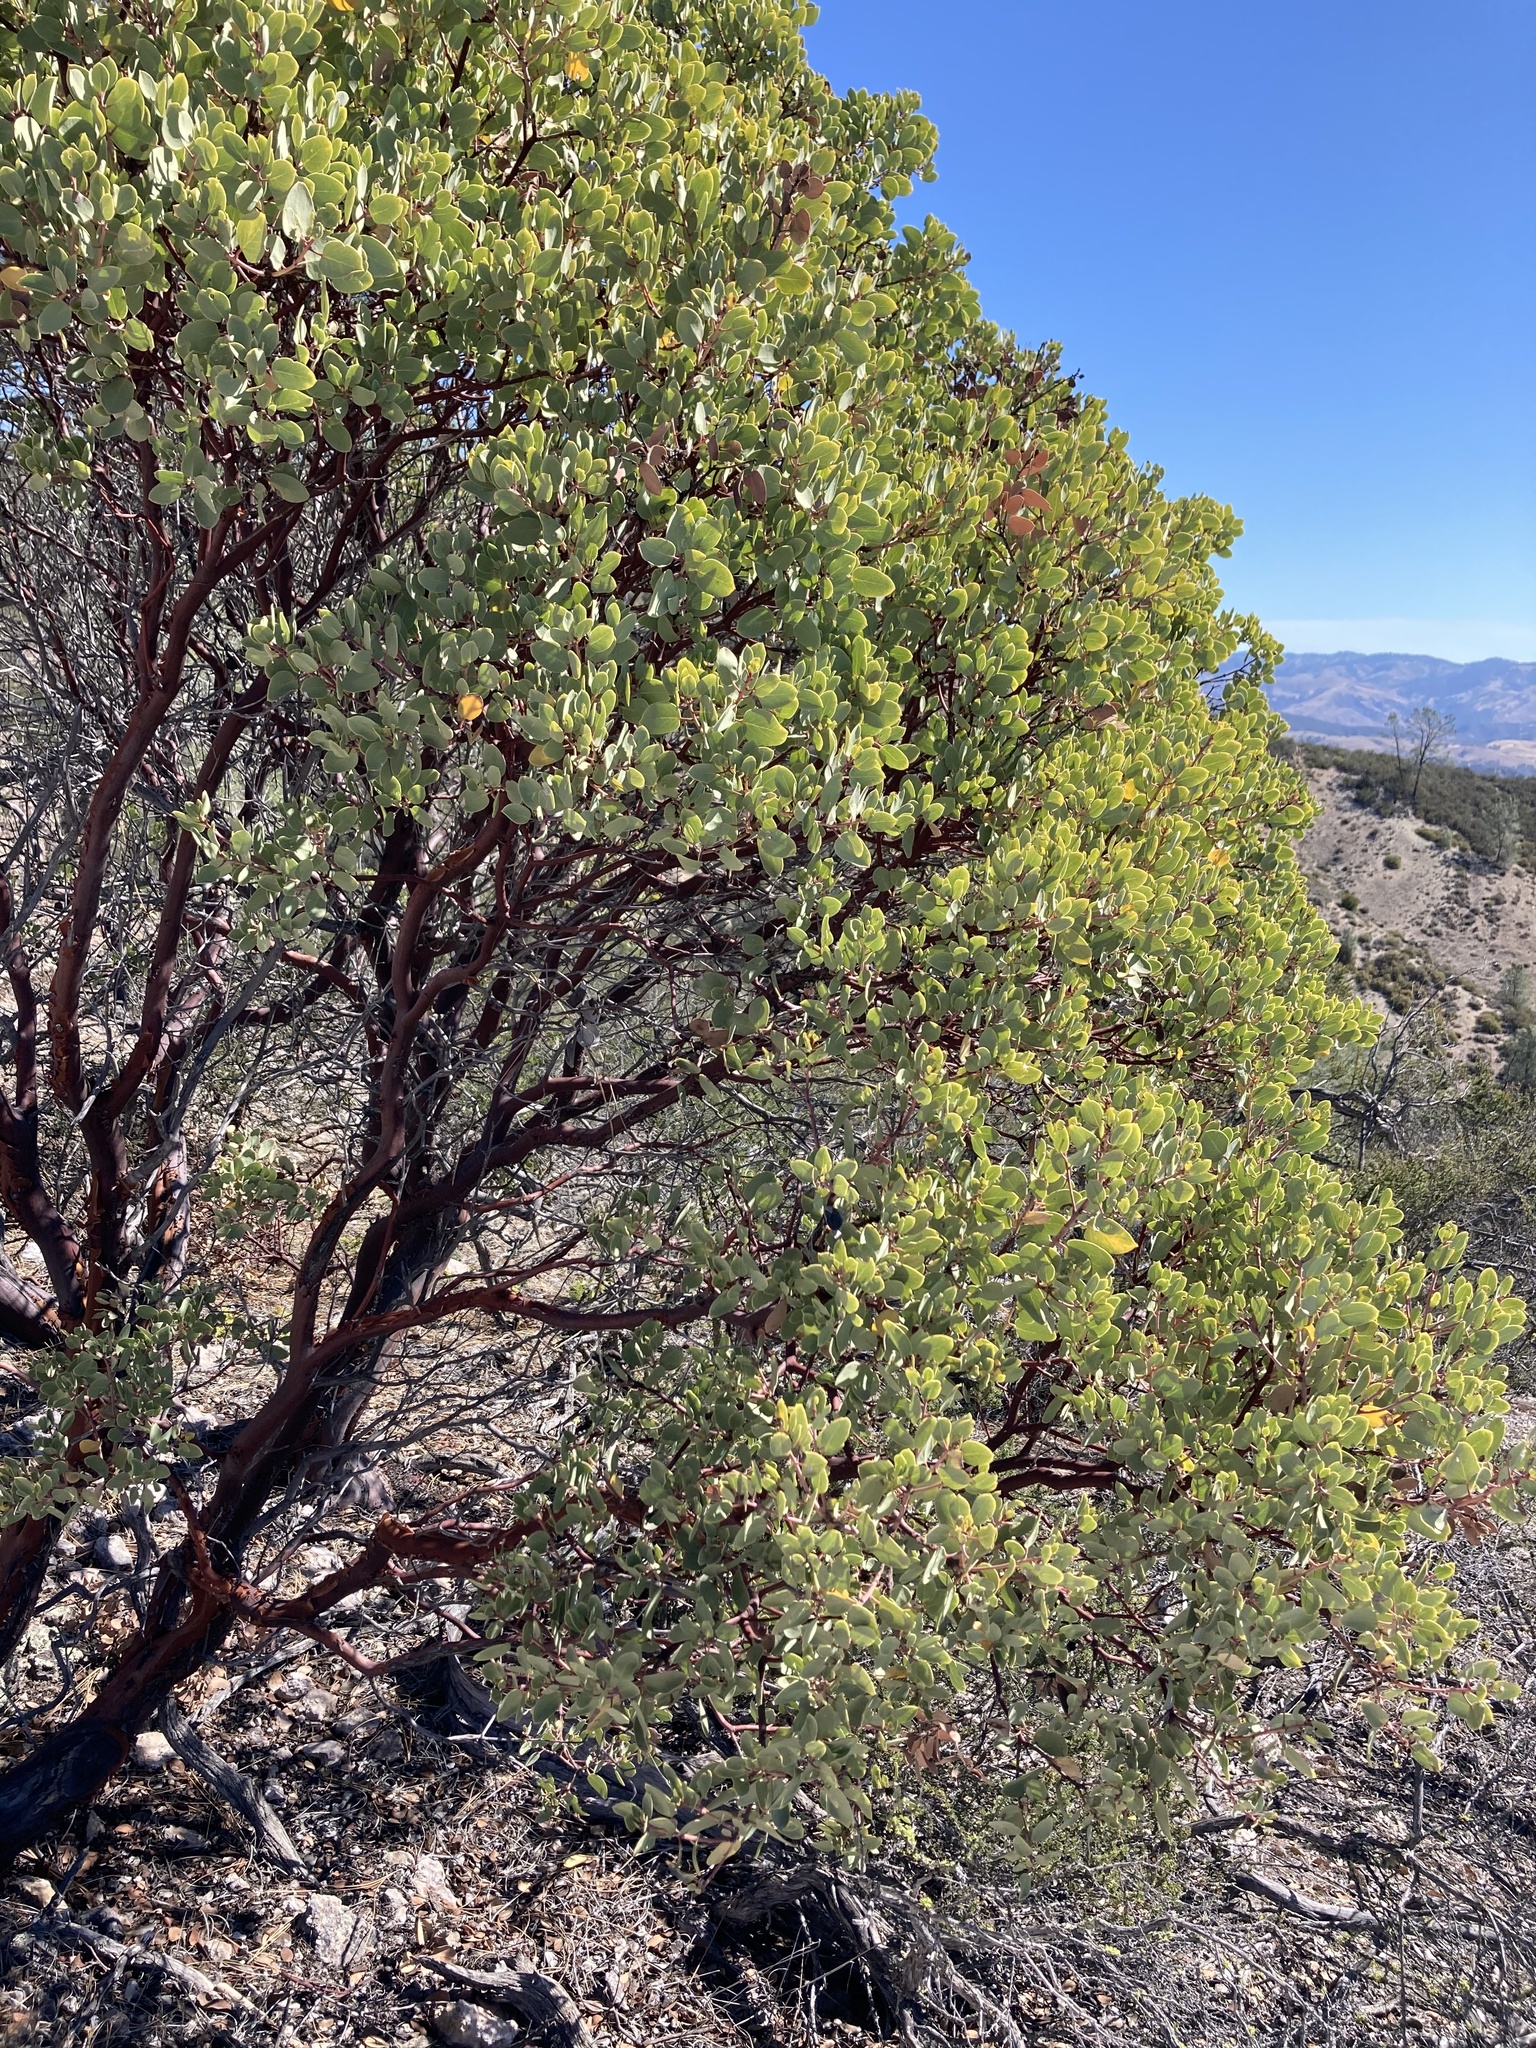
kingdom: Plantae
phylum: Tracheophyta
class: Magnoliopsida
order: Ericales
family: Ericaceae
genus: Arctostaphylos
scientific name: Arctostaphylos glauca
